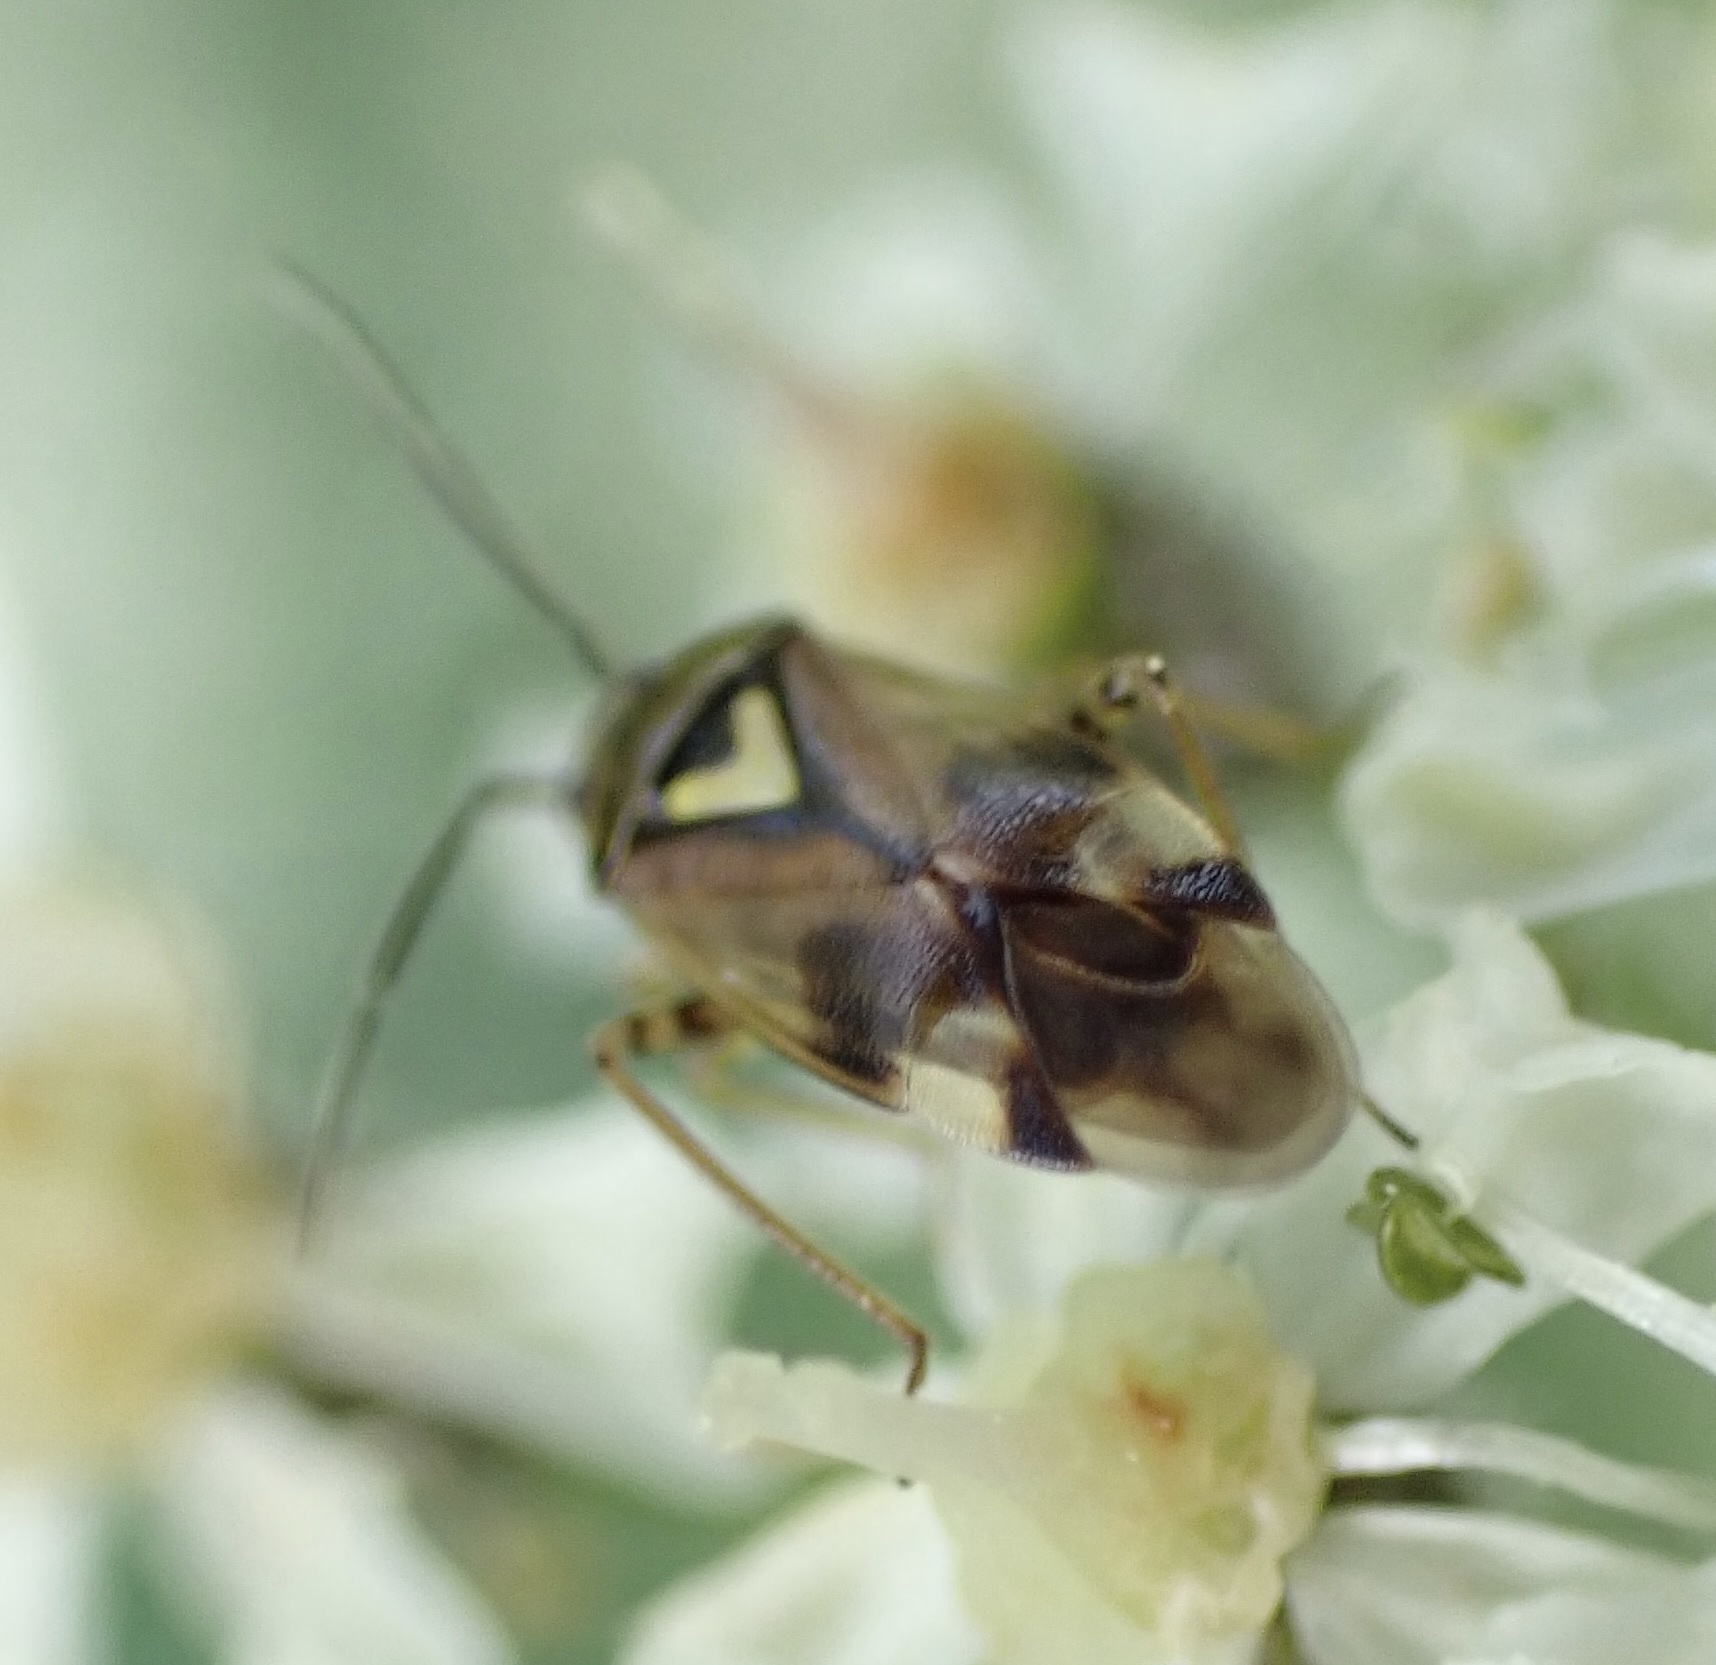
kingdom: Animalia
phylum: Arthropoda
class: Insecta
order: Hemiptera
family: Miridae
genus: Orthops
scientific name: Orthops basalis
